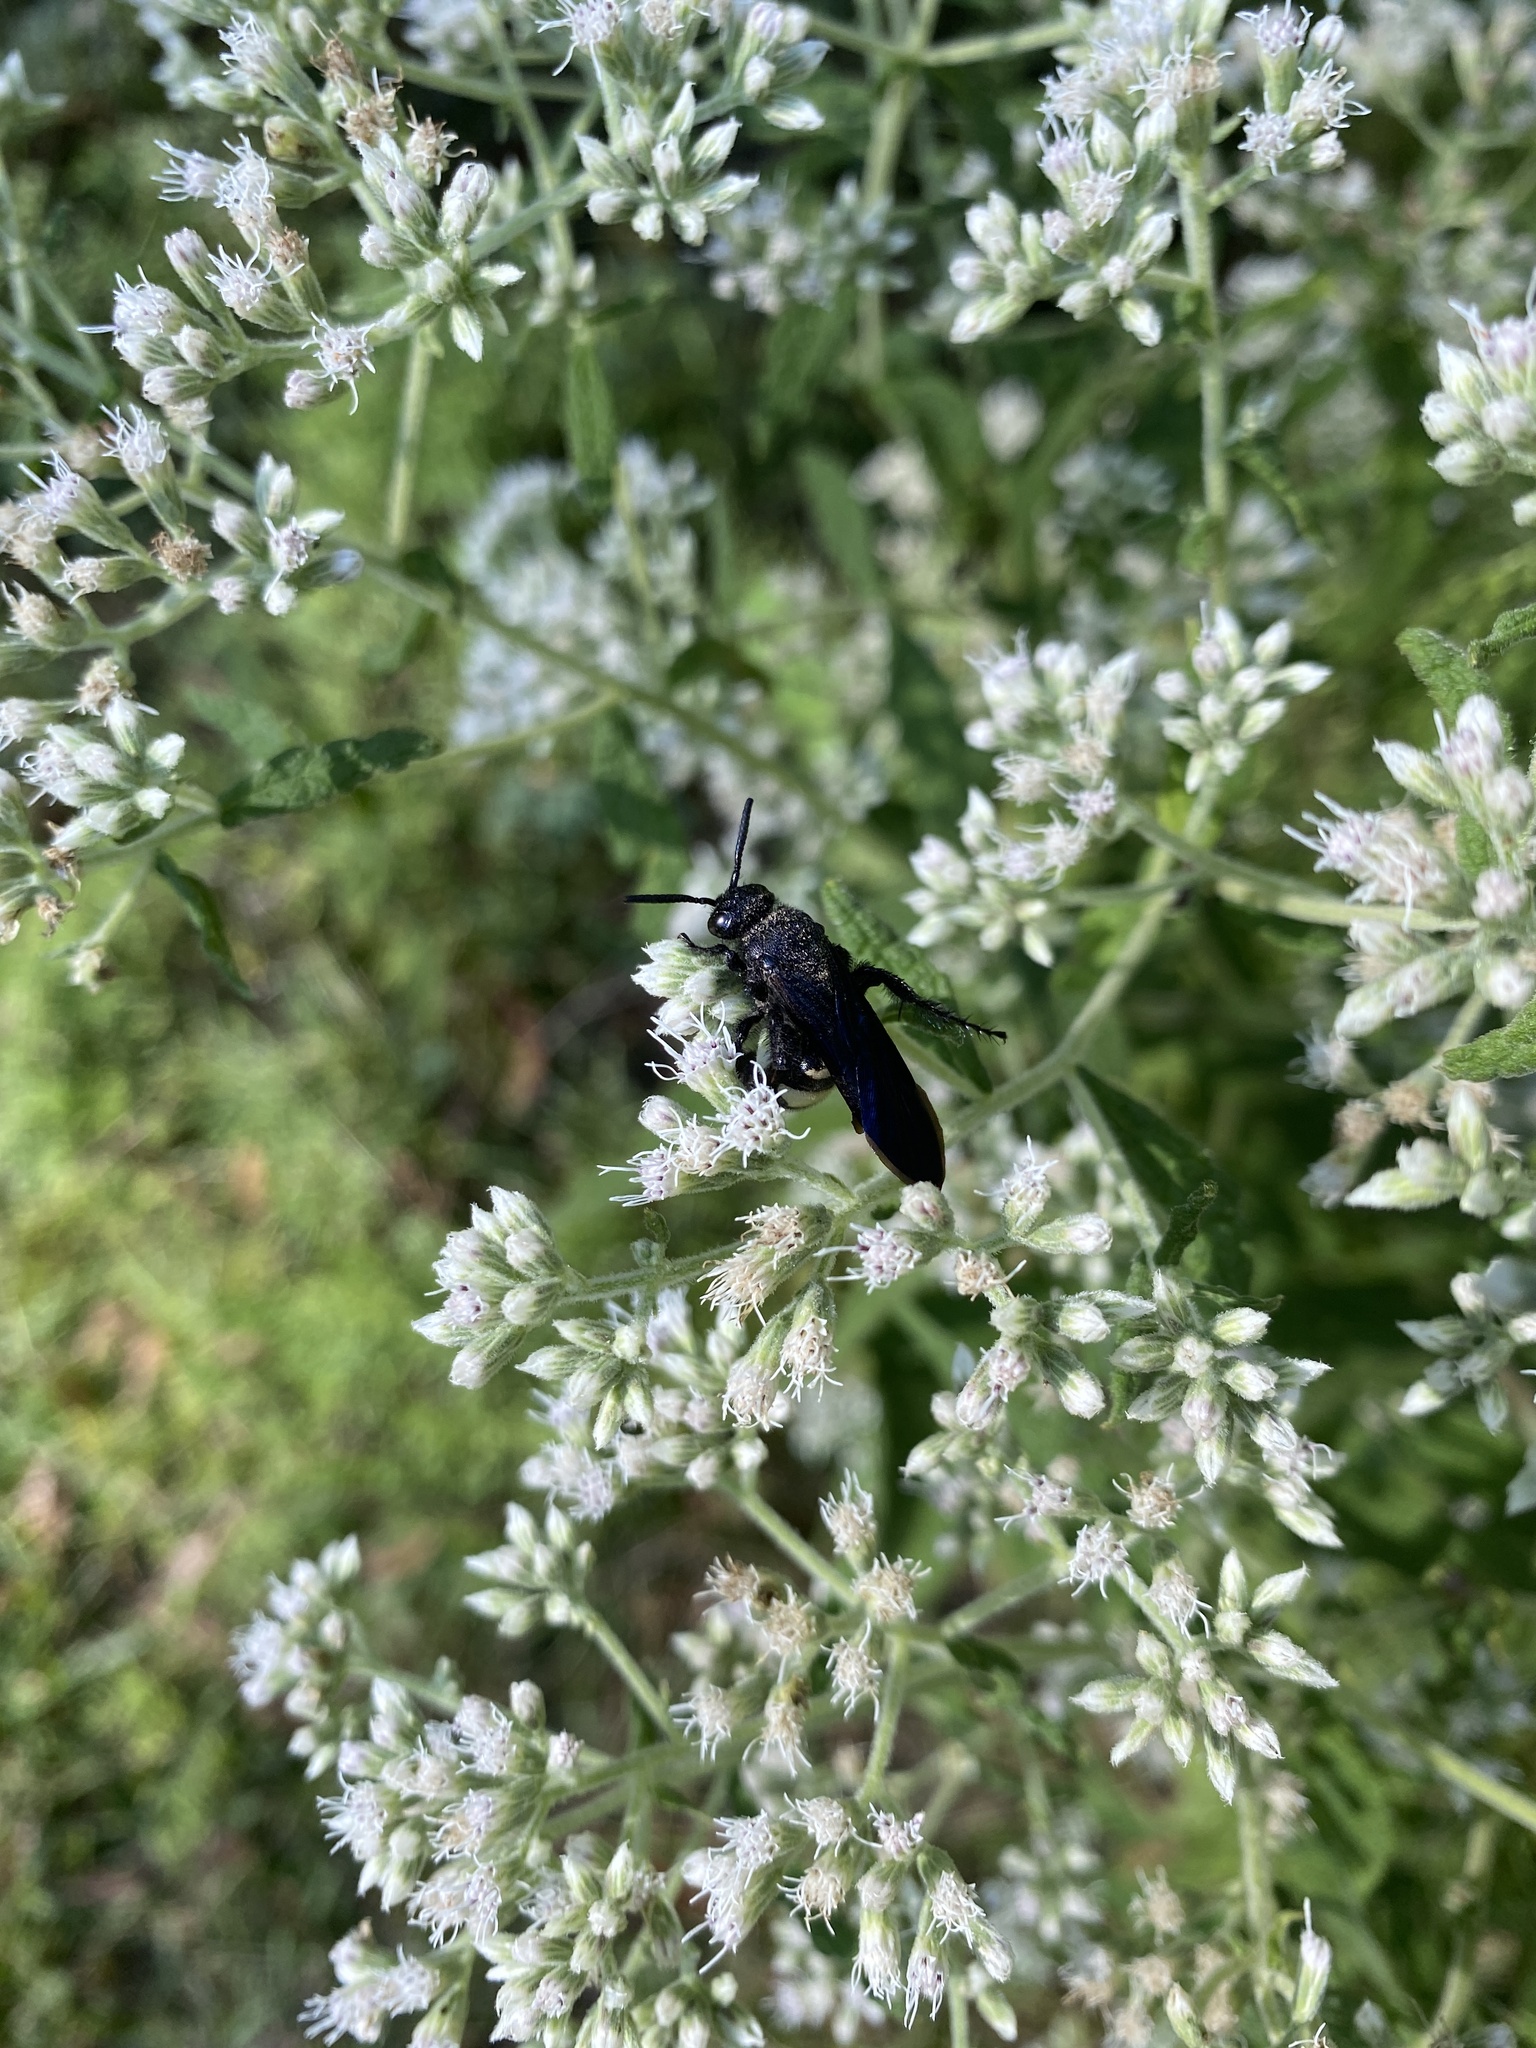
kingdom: Animalia
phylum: Arthropoda
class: Insecta
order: Hymenoptera
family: Scoliidae
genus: Scolia
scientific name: Scolia bicincta
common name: Double-banded scoliid wasp
